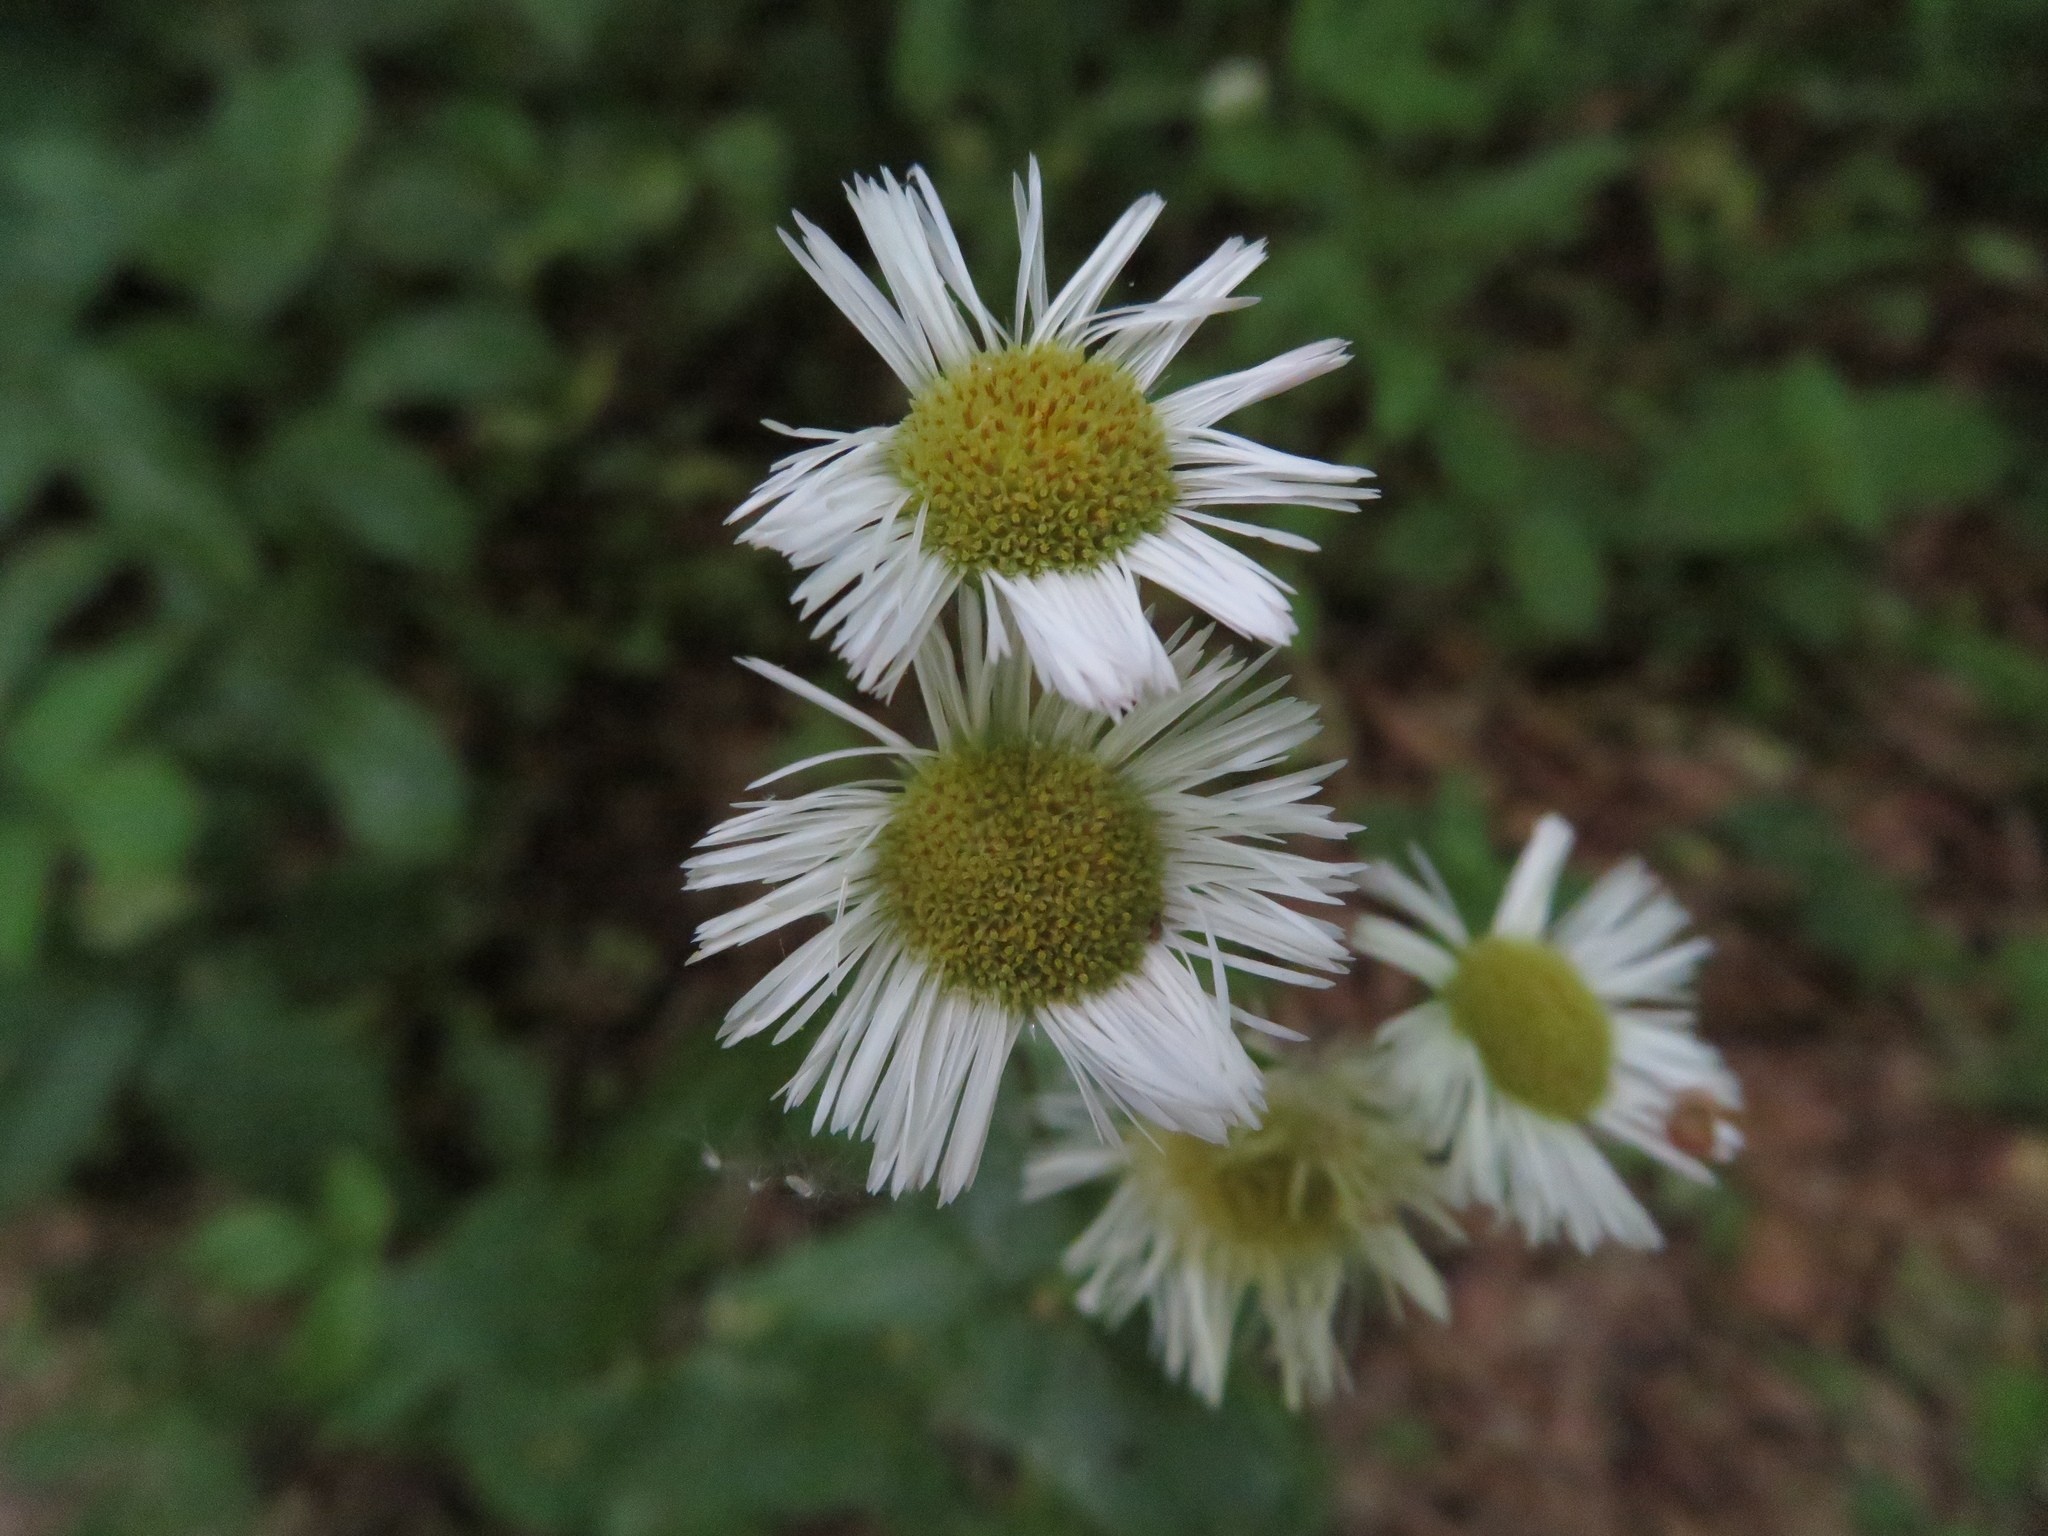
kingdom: Plantae
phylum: Tracheophyta
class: Magnoliopsida
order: Asterales
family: Asteraceae
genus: Erigeron
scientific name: Erigeron philadelphicus
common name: Robin's-plantain
